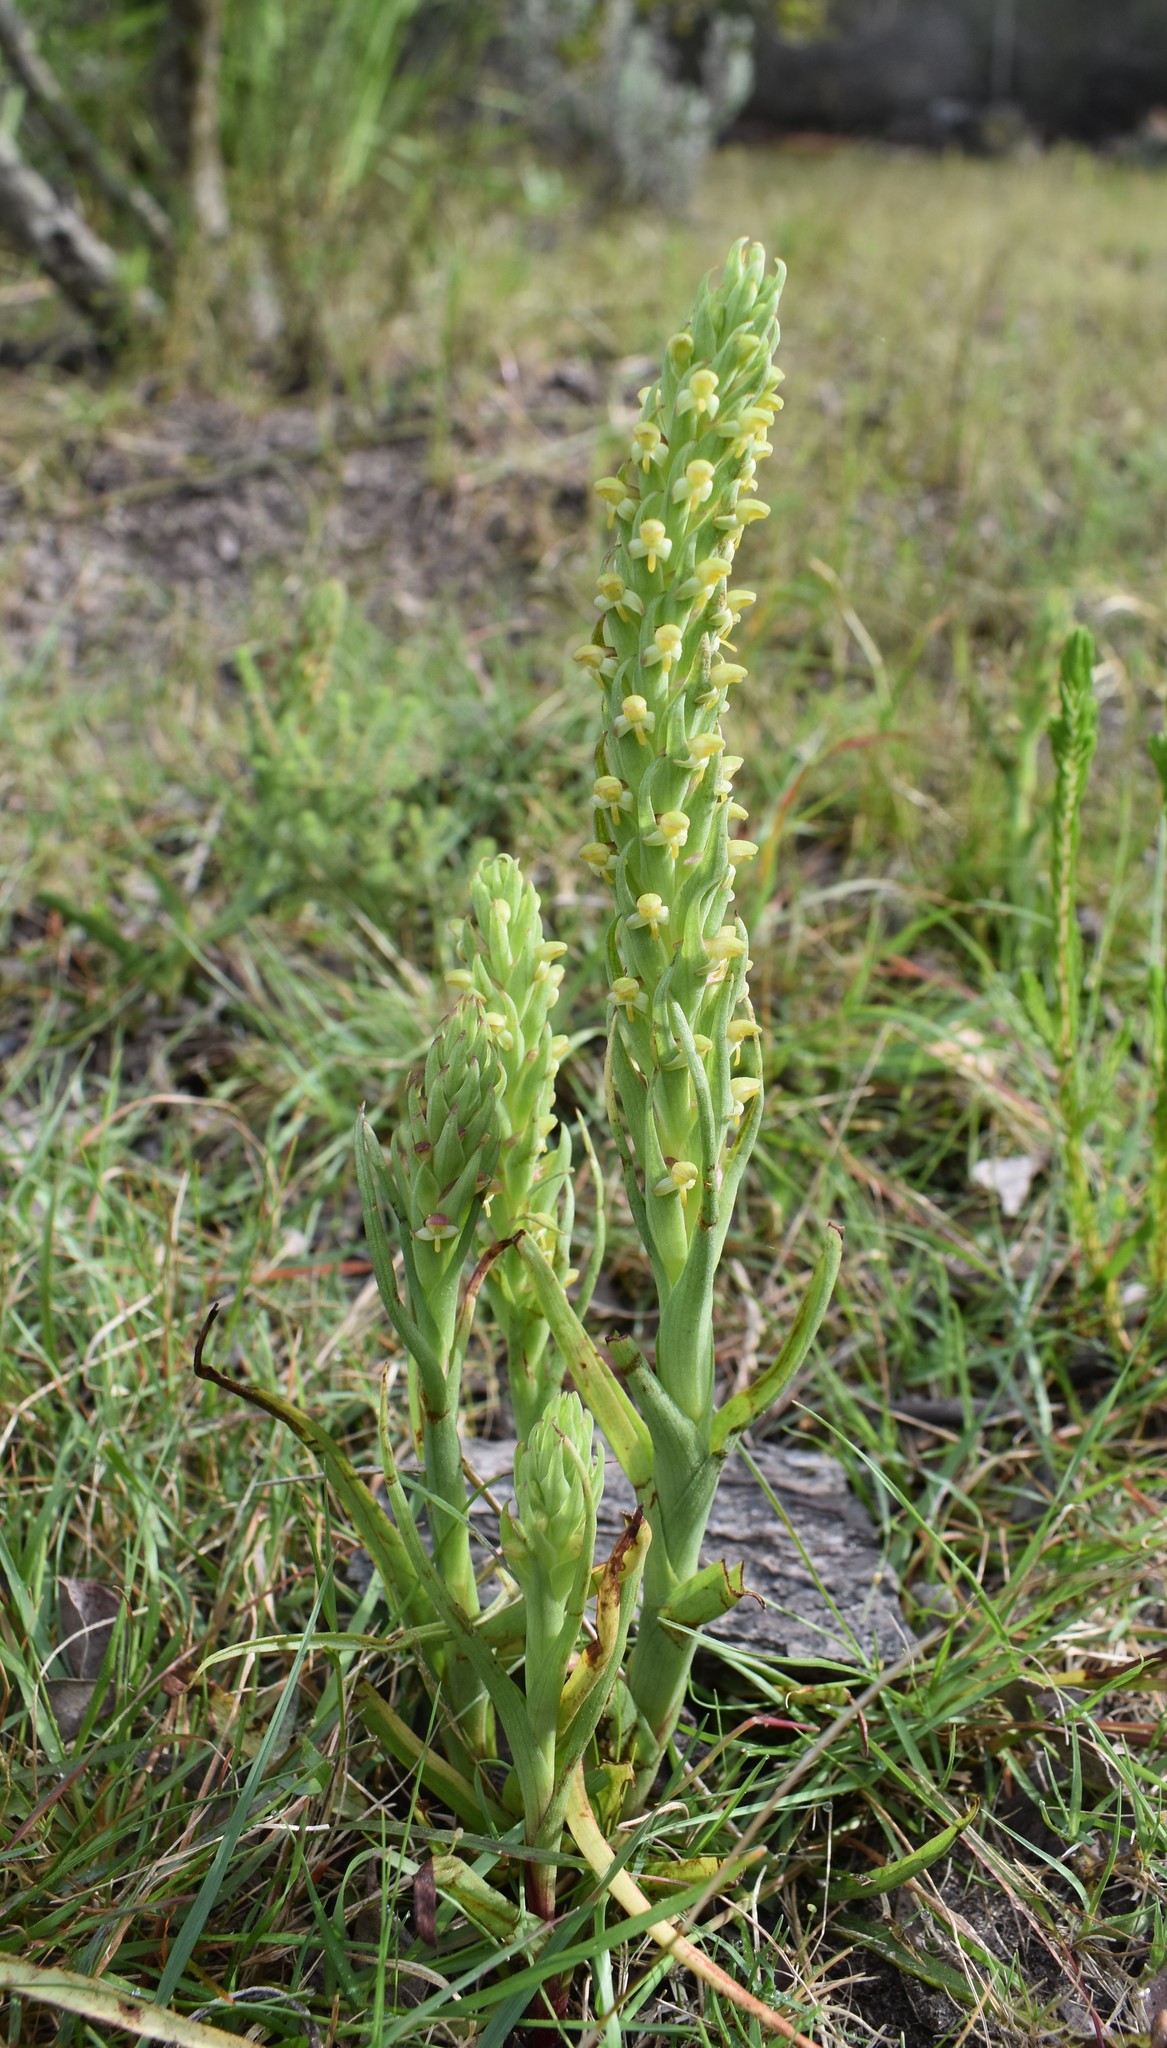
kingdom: Plantae
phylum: Tracheophyta
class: Liliopsida
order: Asparagales
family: Orchidaceae
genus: Disa
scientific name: Disa bracteata
